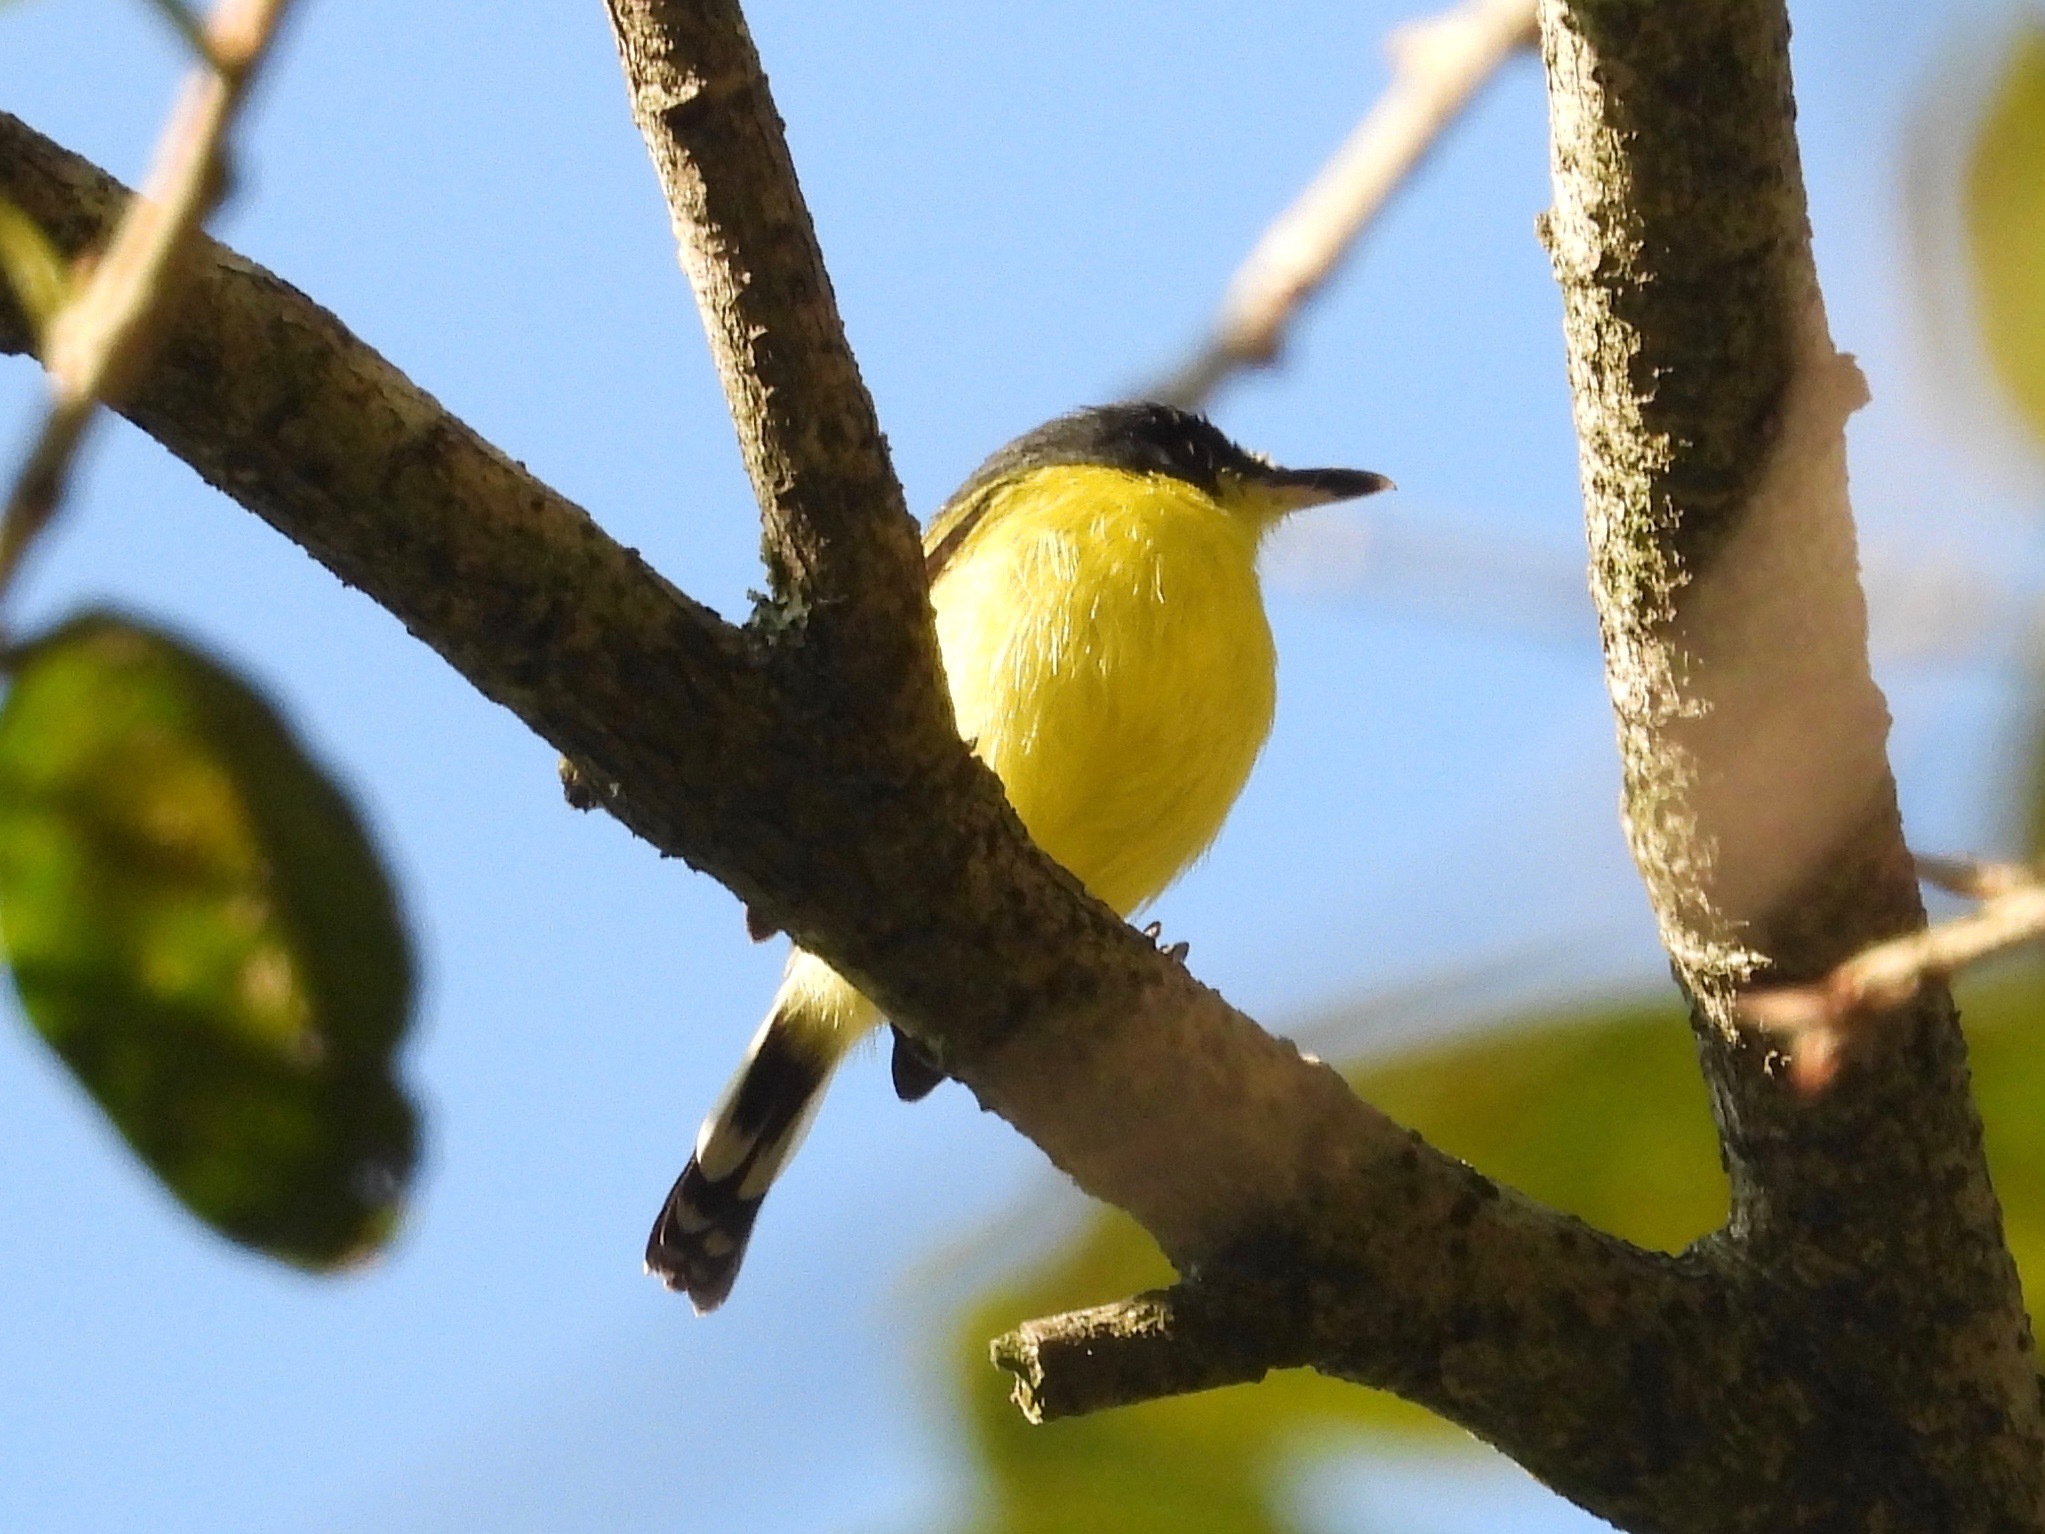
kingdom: Animalia
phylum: Chordata
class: Aves
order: Passeriformes
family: Tyrannidae
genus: Todirostrum
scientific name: Todirostrum cinereum
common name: Common tody-flycatcher
